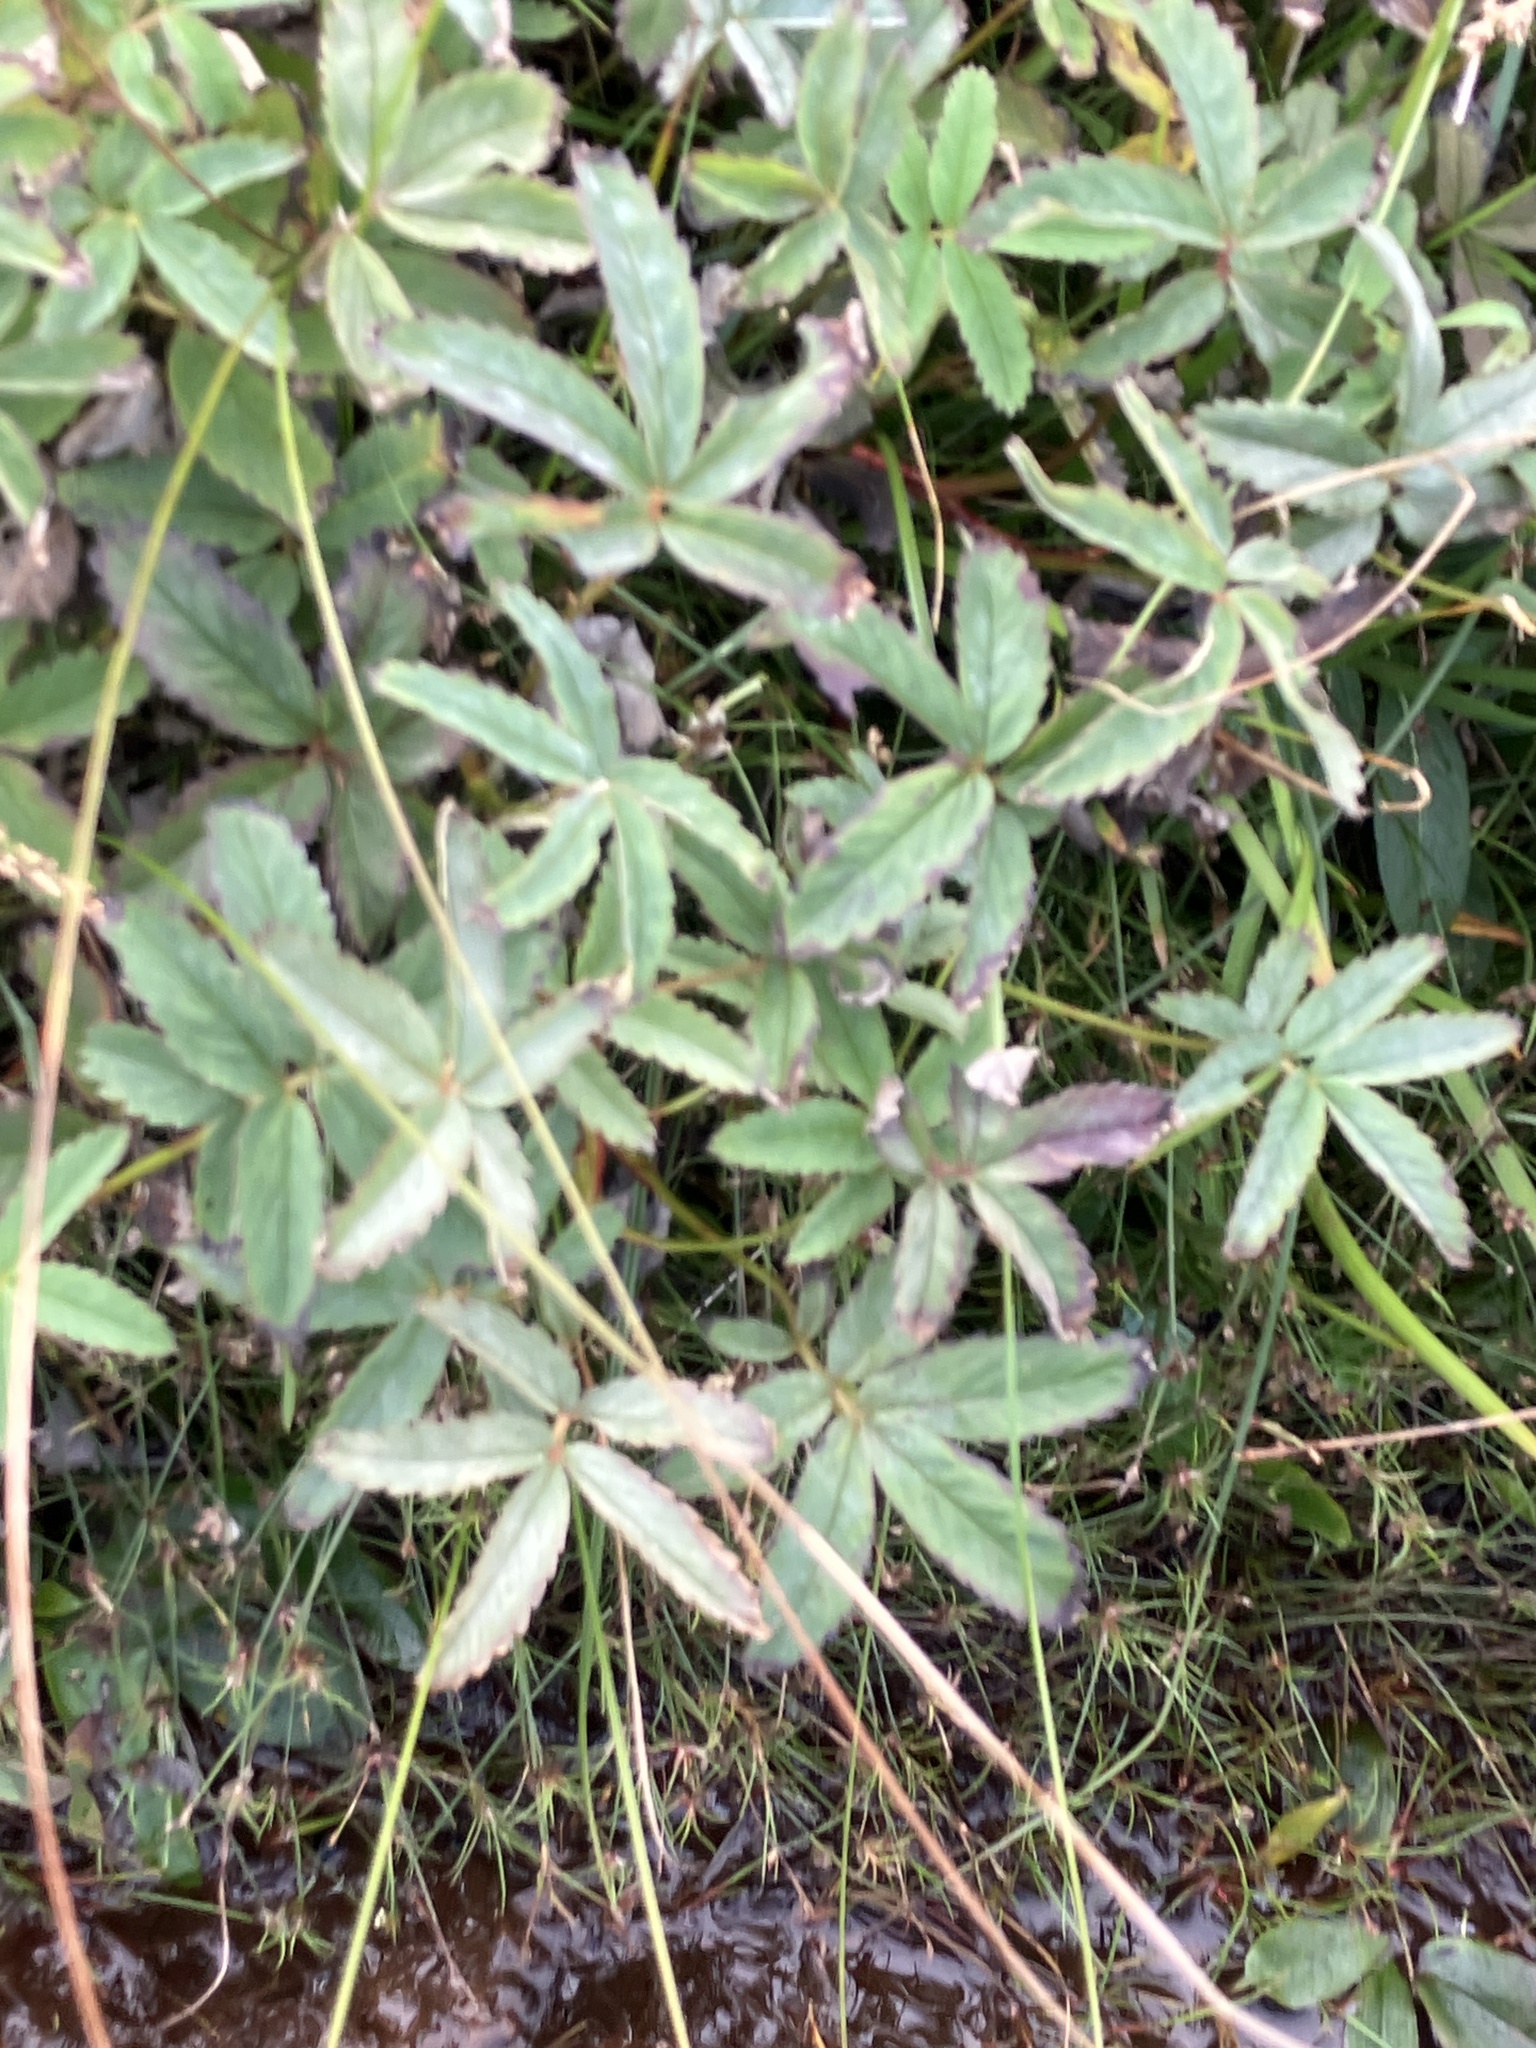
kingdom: Plantae
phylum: Tracheophyta
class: Magnoliopsida
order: Rosales
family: Rosaceae
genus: Comarum
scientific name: Comarum palustre
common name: Marsh cinquefoil
